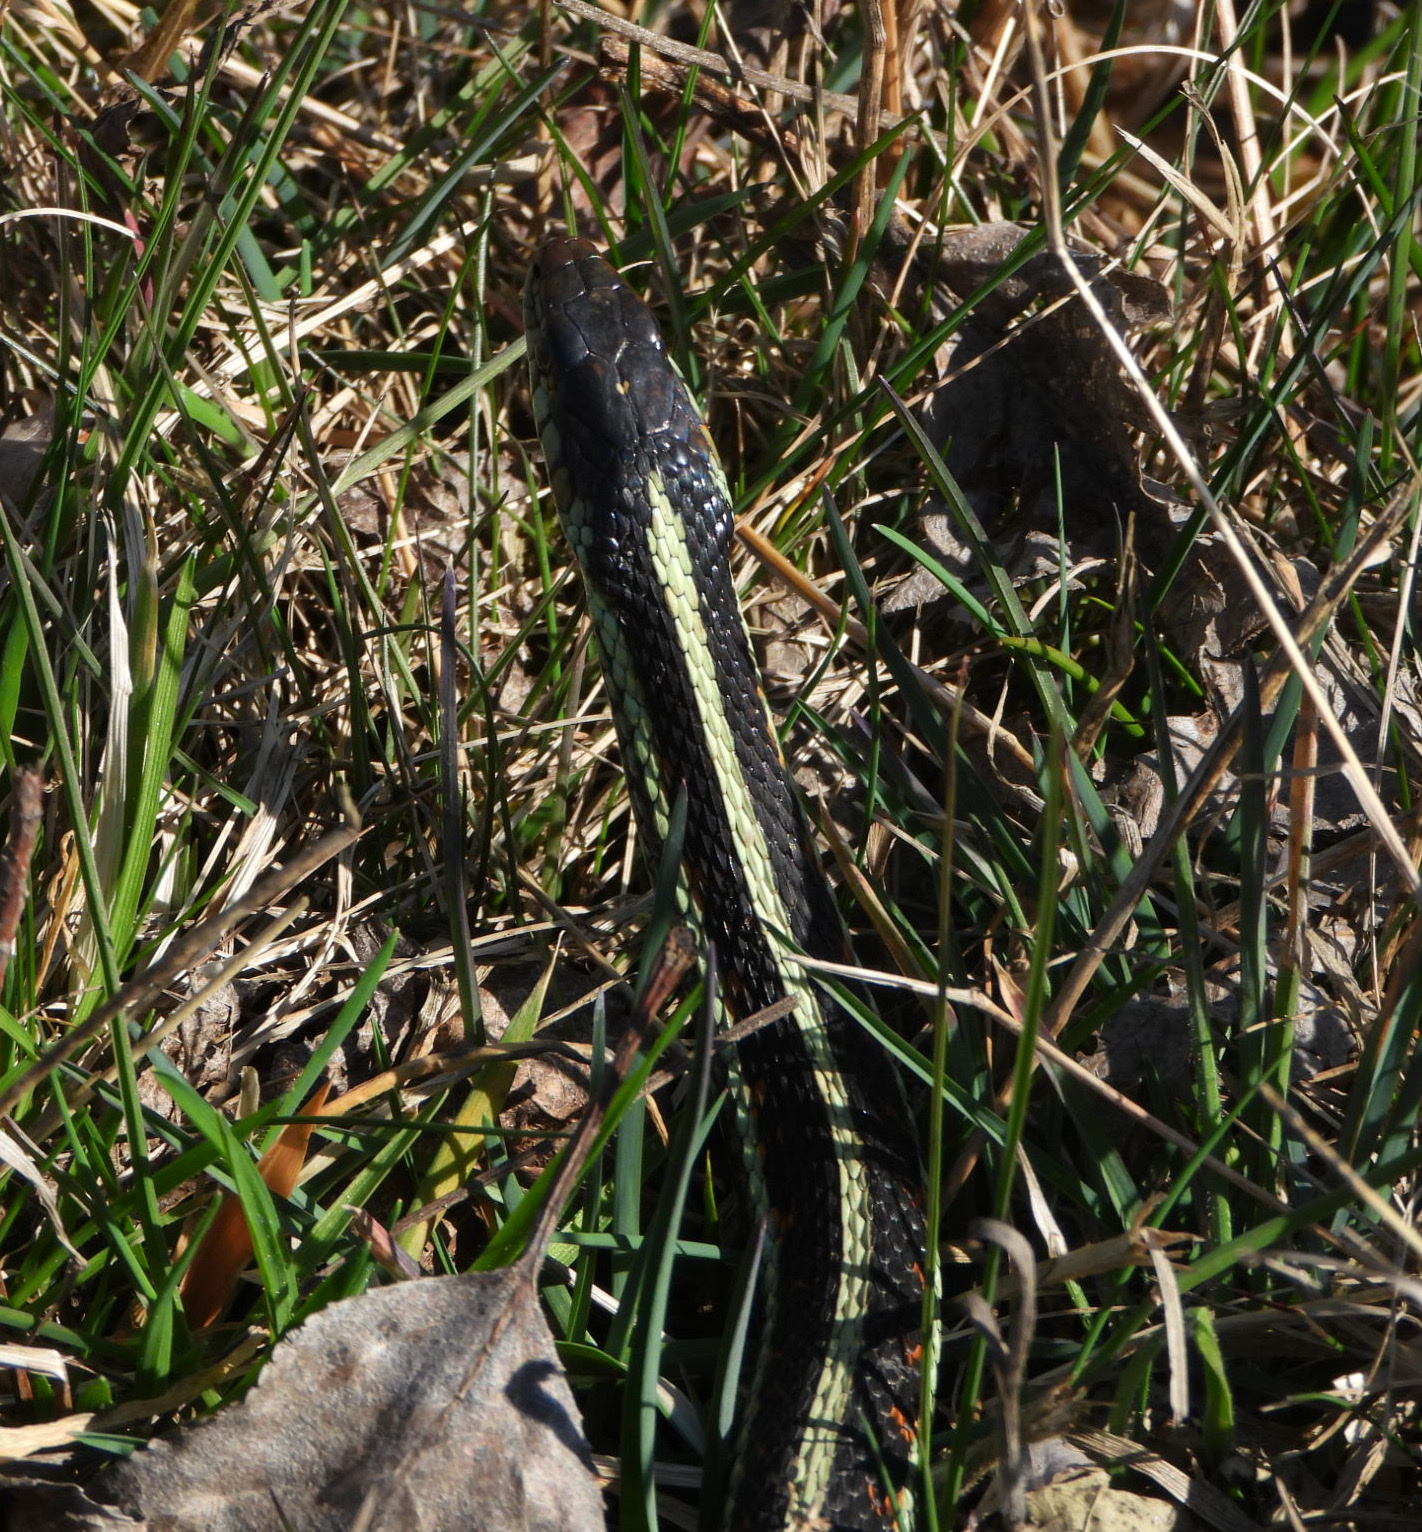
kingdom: Animalia
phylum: Chordata
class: Squamata
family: Colubridae
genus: Thamnophis
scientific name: Thamnophis sirtalis
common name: Common garter snake
